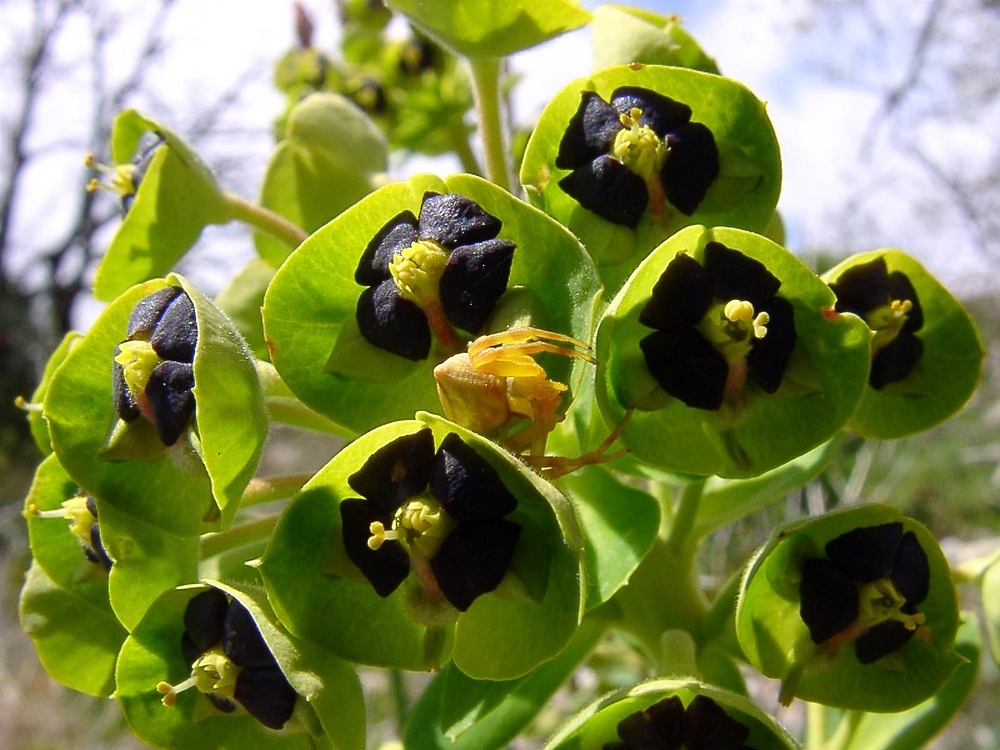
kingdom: Animalia
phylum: Arthropoda
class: Arachnida
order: Araneae
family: Thomisidae
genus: Thomisus
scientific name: Thomisus onustus
